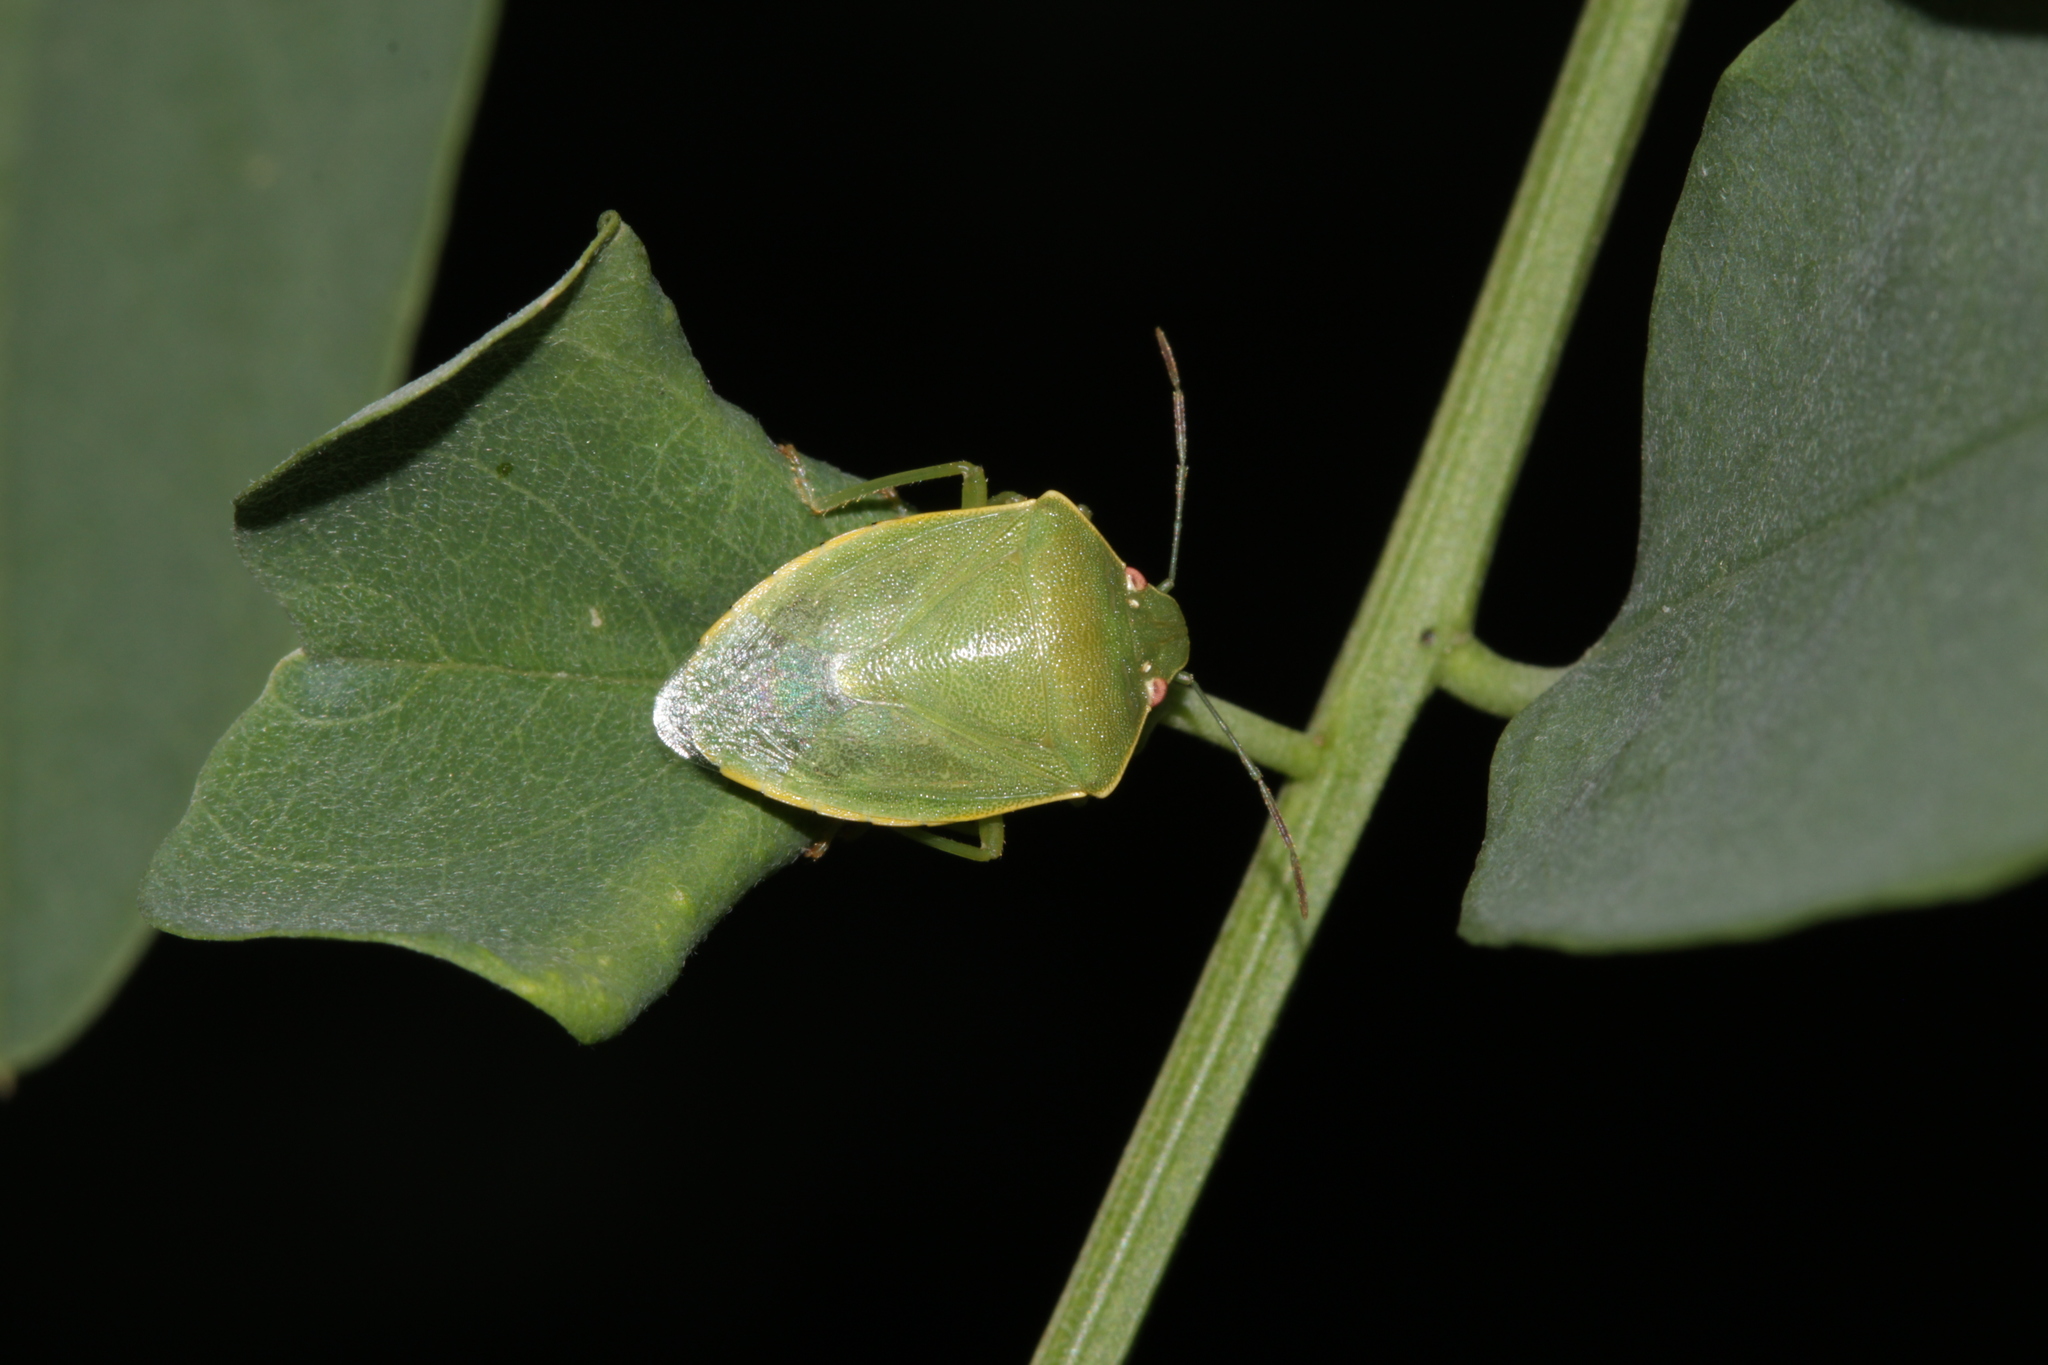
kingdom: Animalia
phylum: Arthropoda
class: Insecta
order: Hemiptera
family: Pentatomidae
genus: Acrosternum
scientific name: Acrosternum millierei
